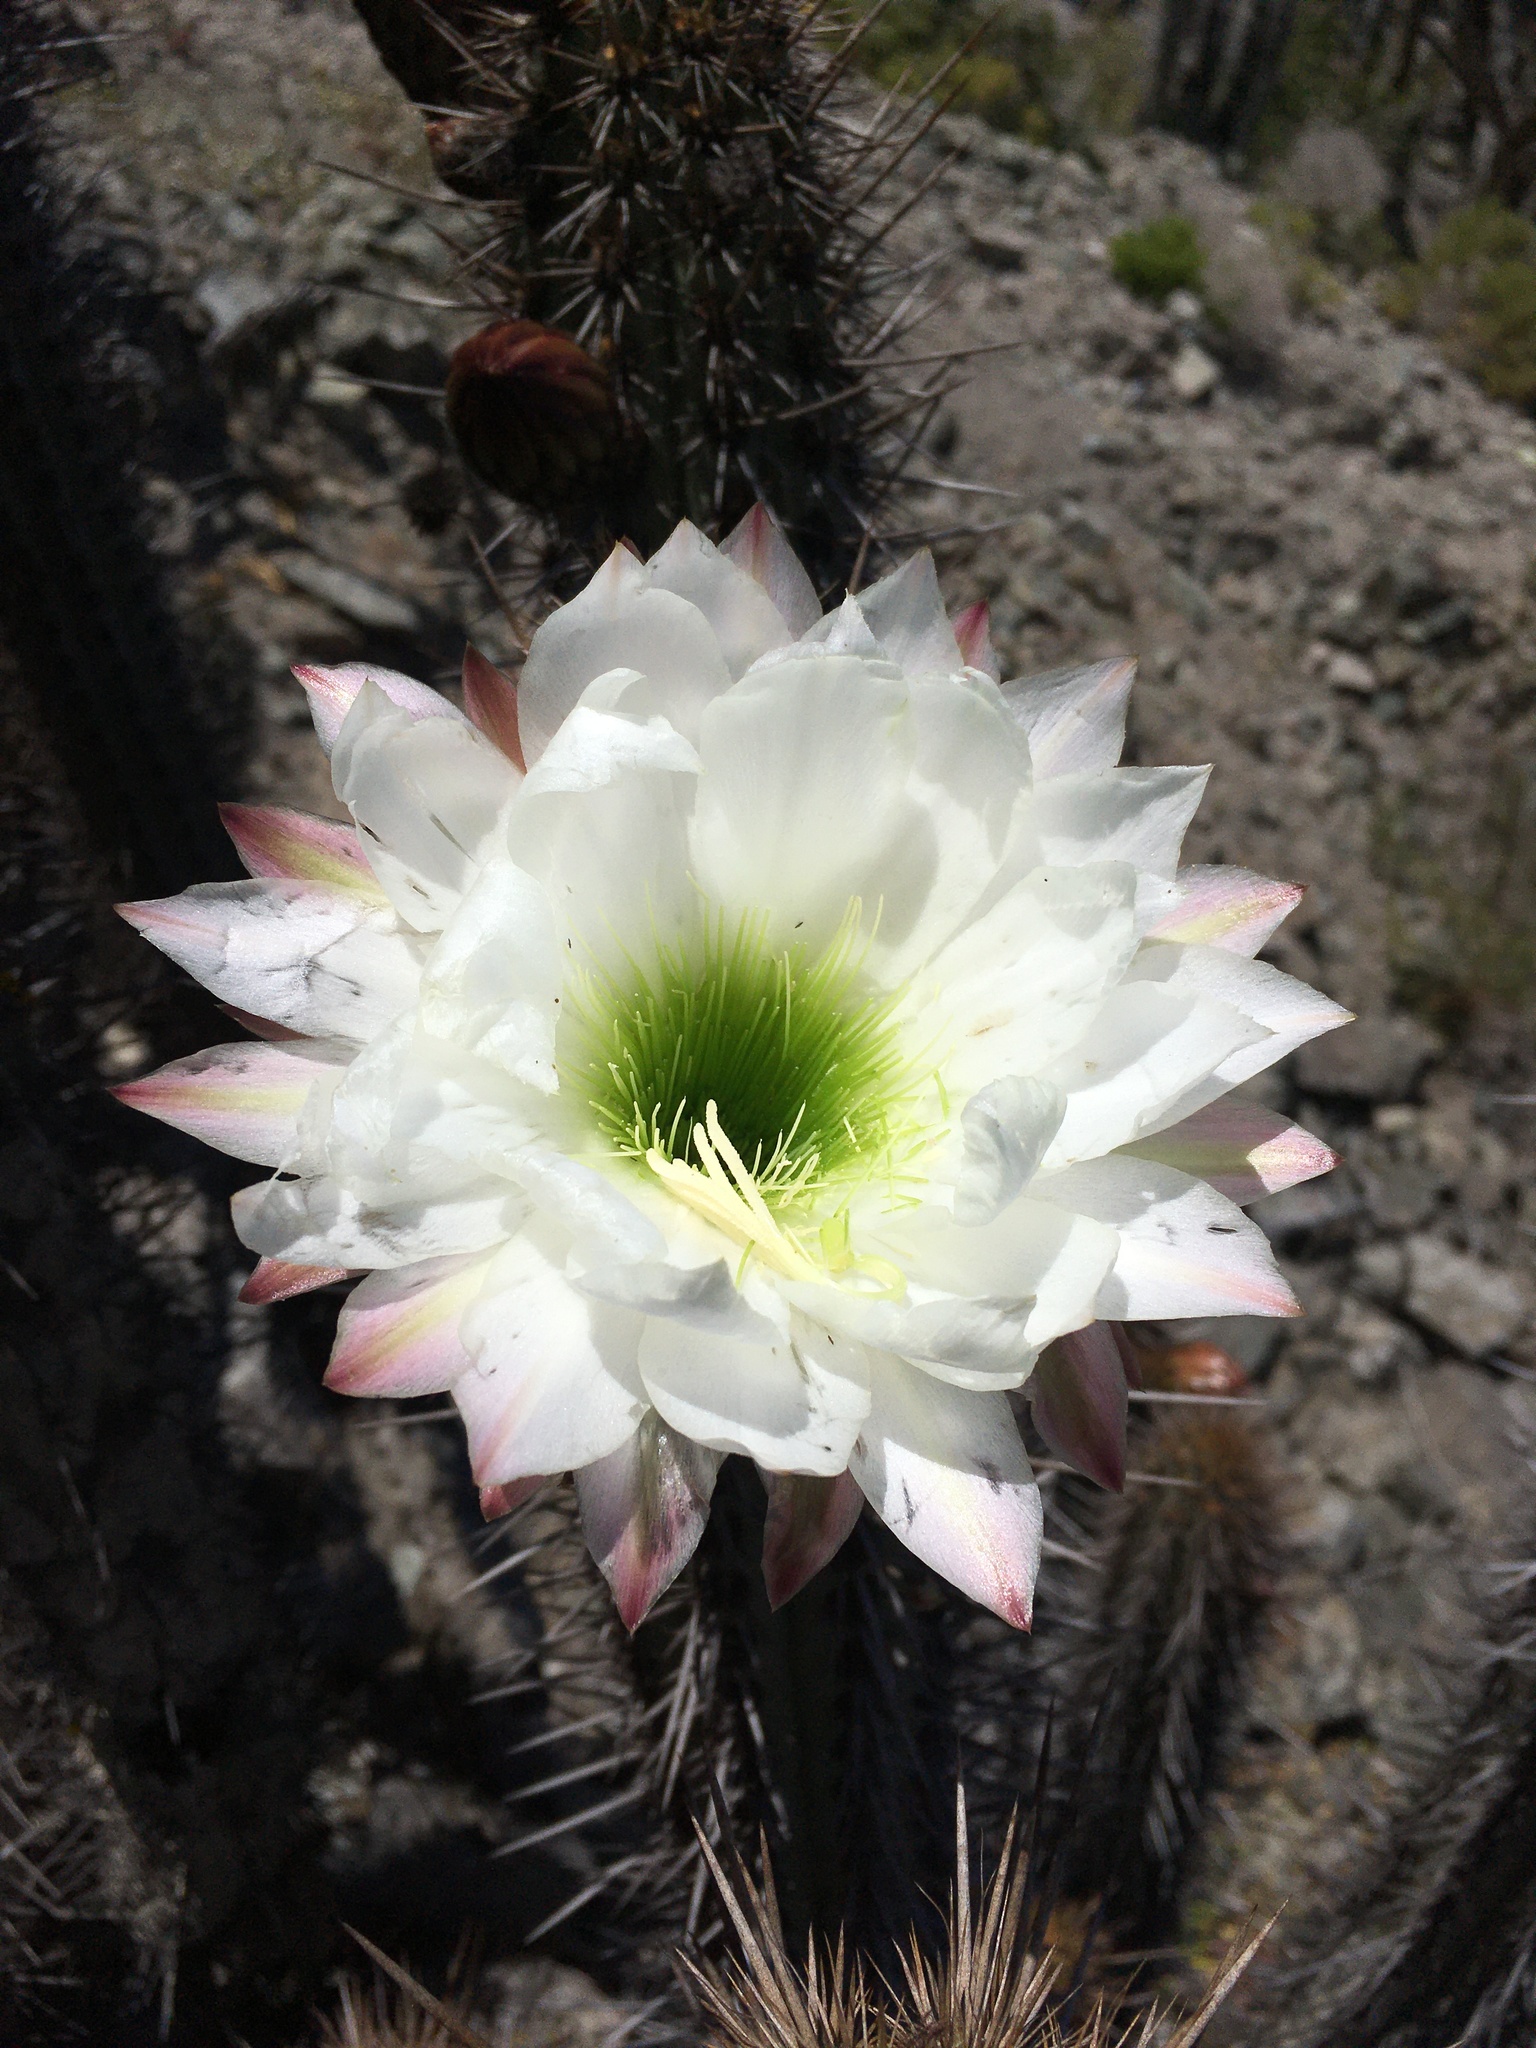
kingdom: Plantae
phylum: Tracheophyta
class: Magnoliopsida
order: Caryophyllales
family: Cactaceae
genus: Leucostele
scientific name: Leucostele deserticola
